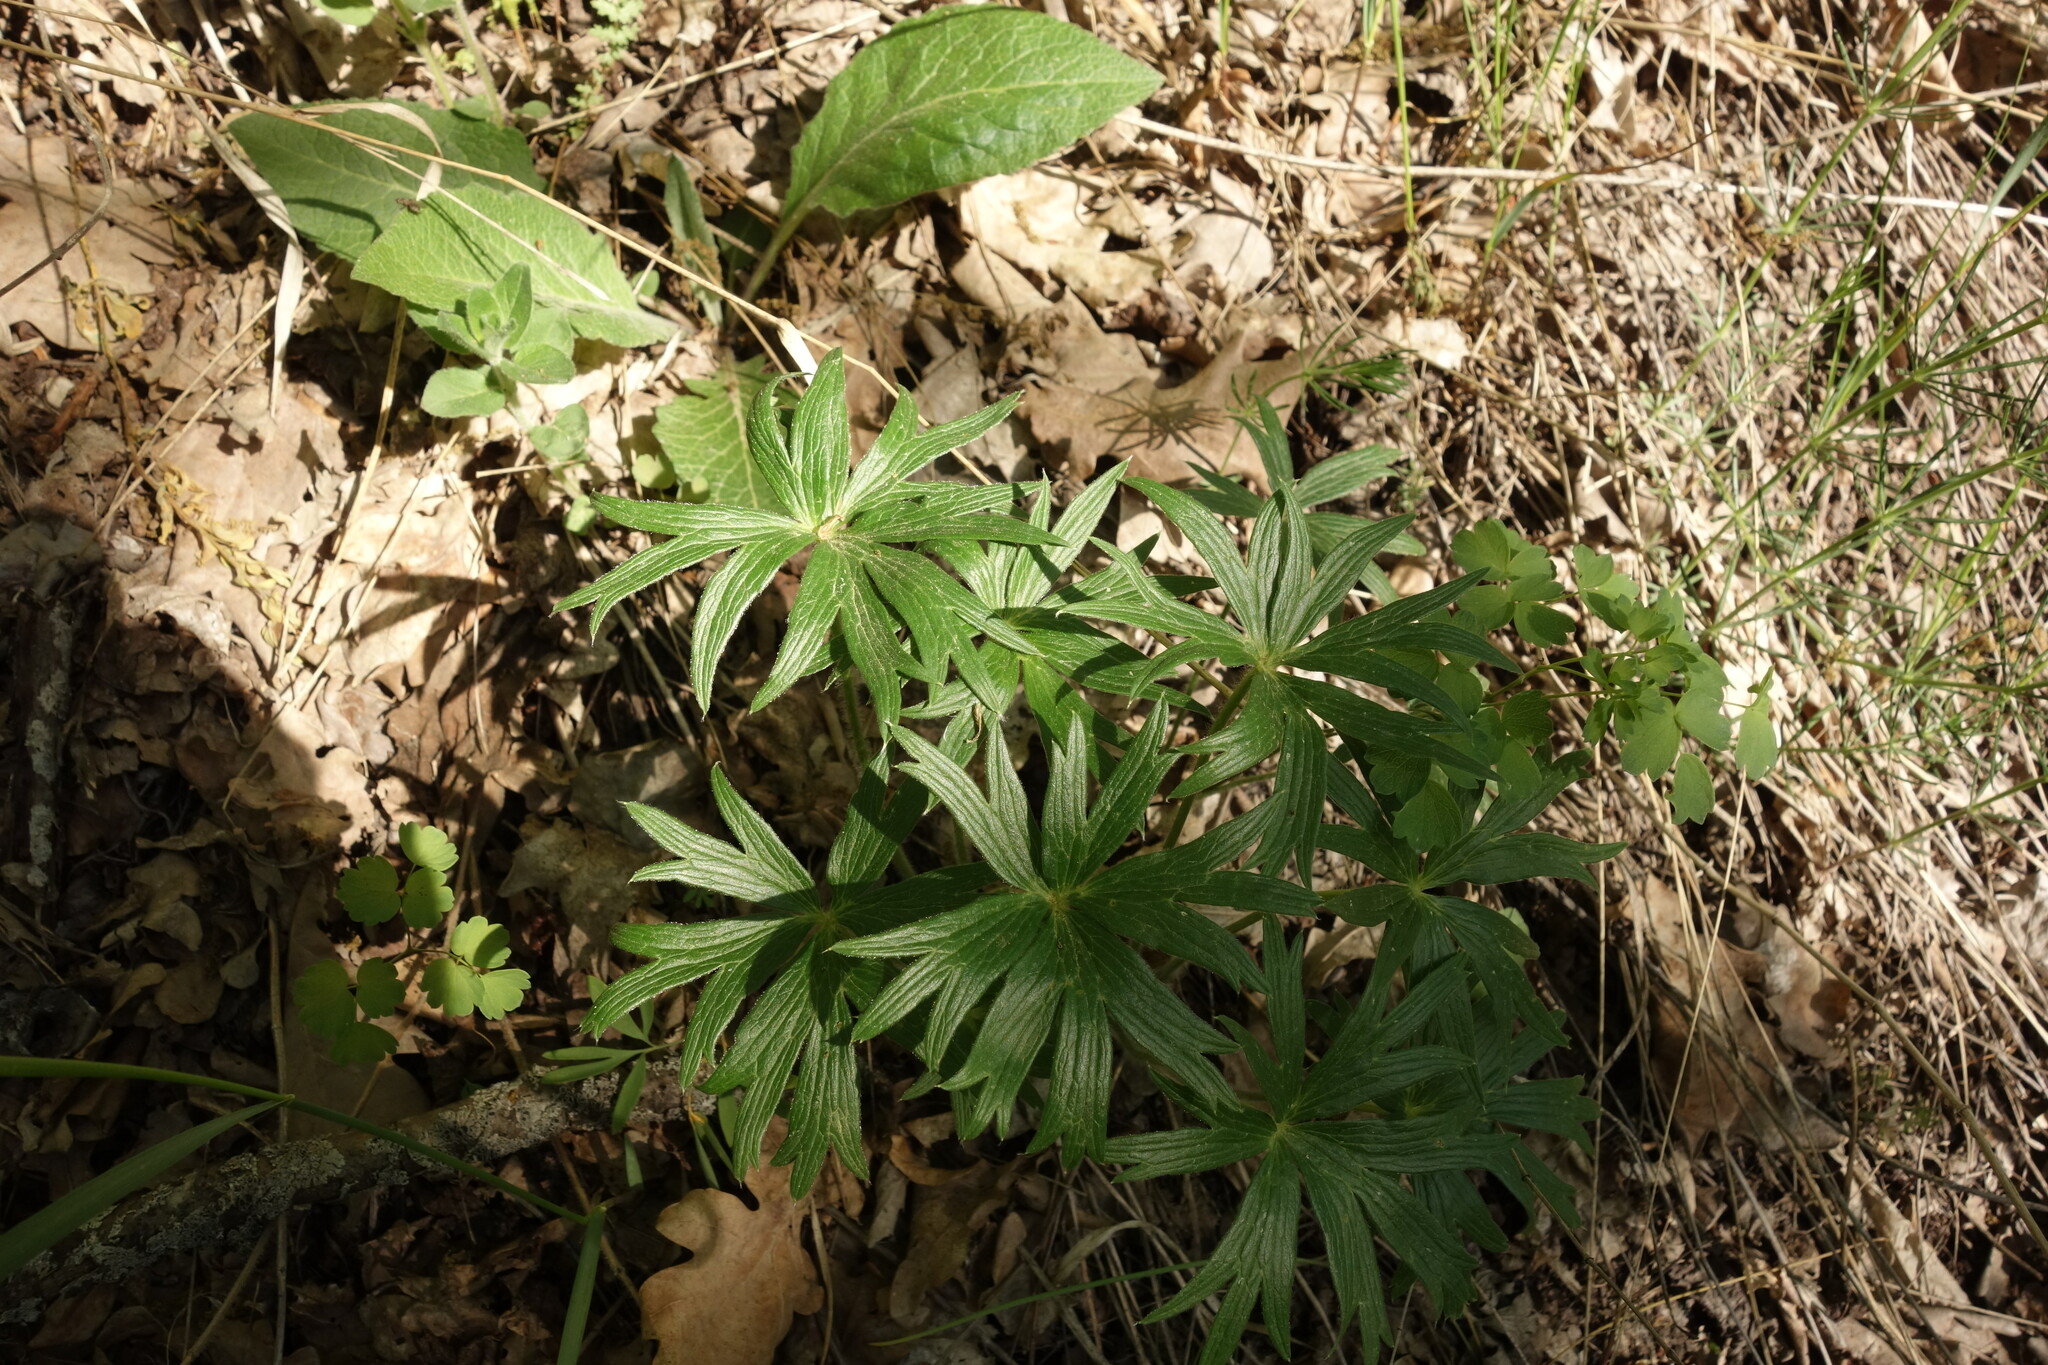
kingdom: Plantae
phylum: Tracheophyta
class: Magnoliopsida
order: Ranunculales
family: Ranunculaceae
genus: Pulsatilla
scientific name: Pulsatilla patens
